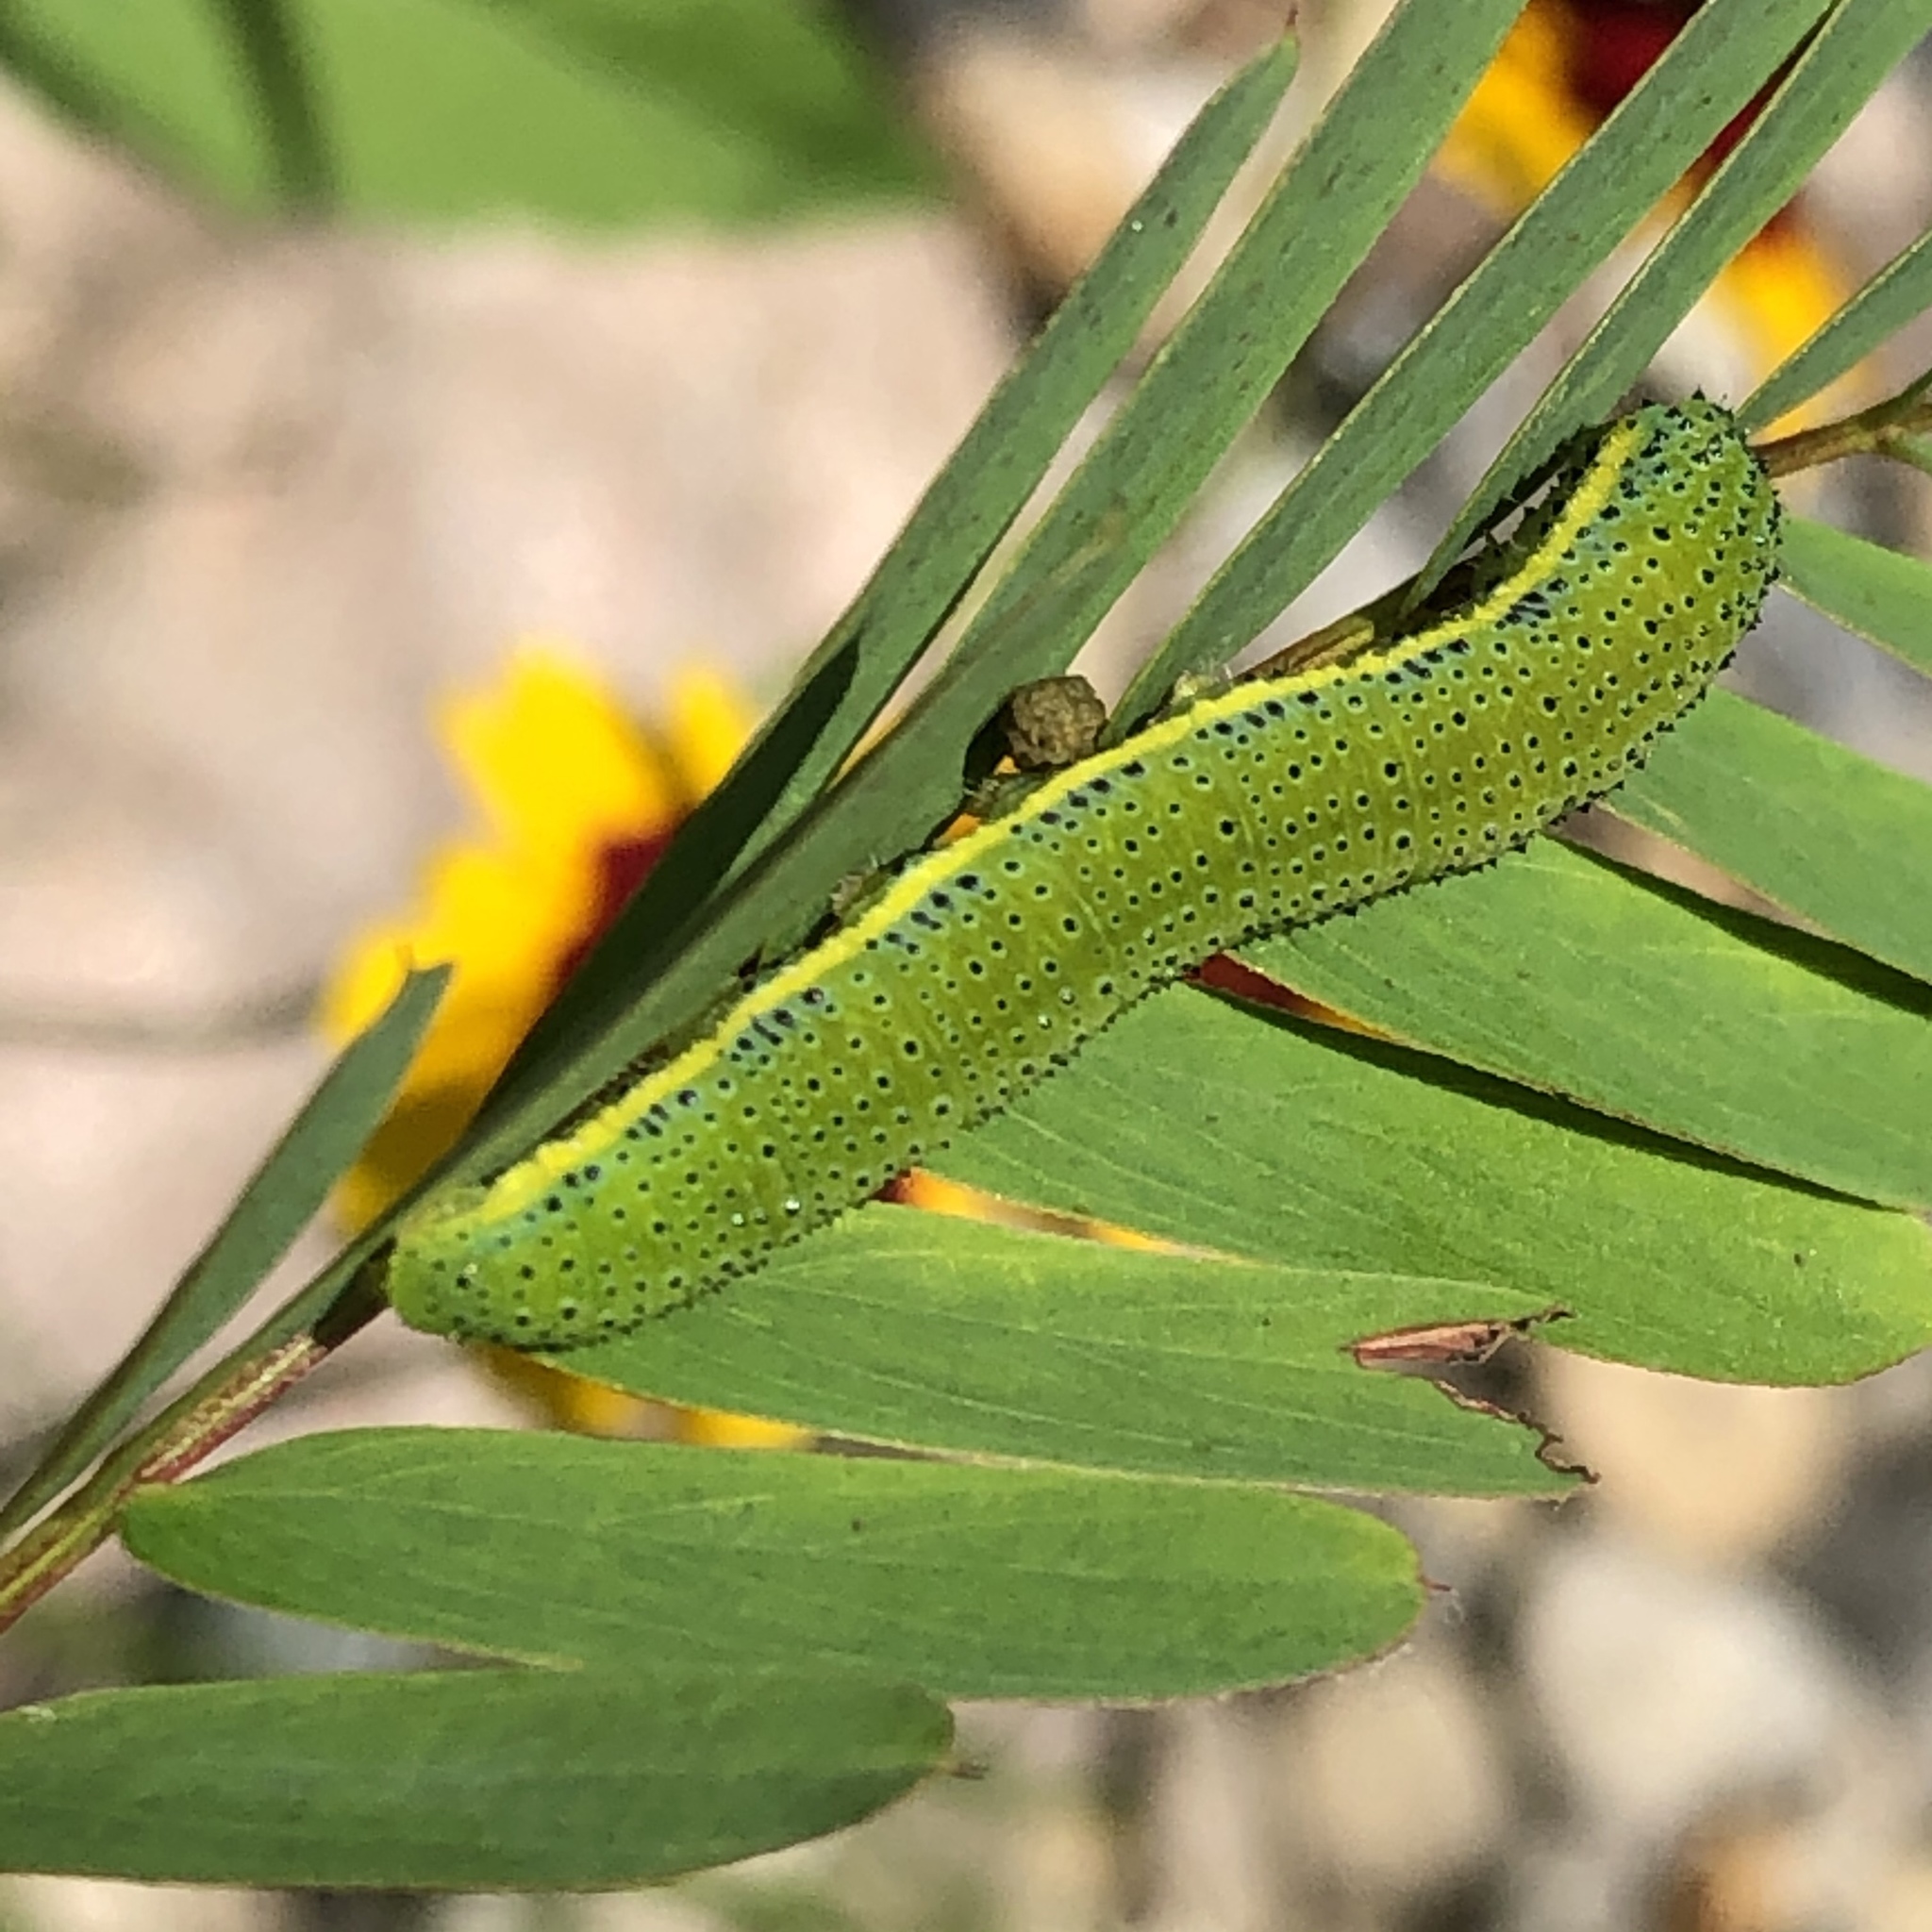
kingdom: Animalia
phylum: Arthropoda
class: Insecta
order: Lepidoptera
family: Pieridae
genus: Phoebis
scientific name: Phoebis sennae
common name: Cloudless sulphur
